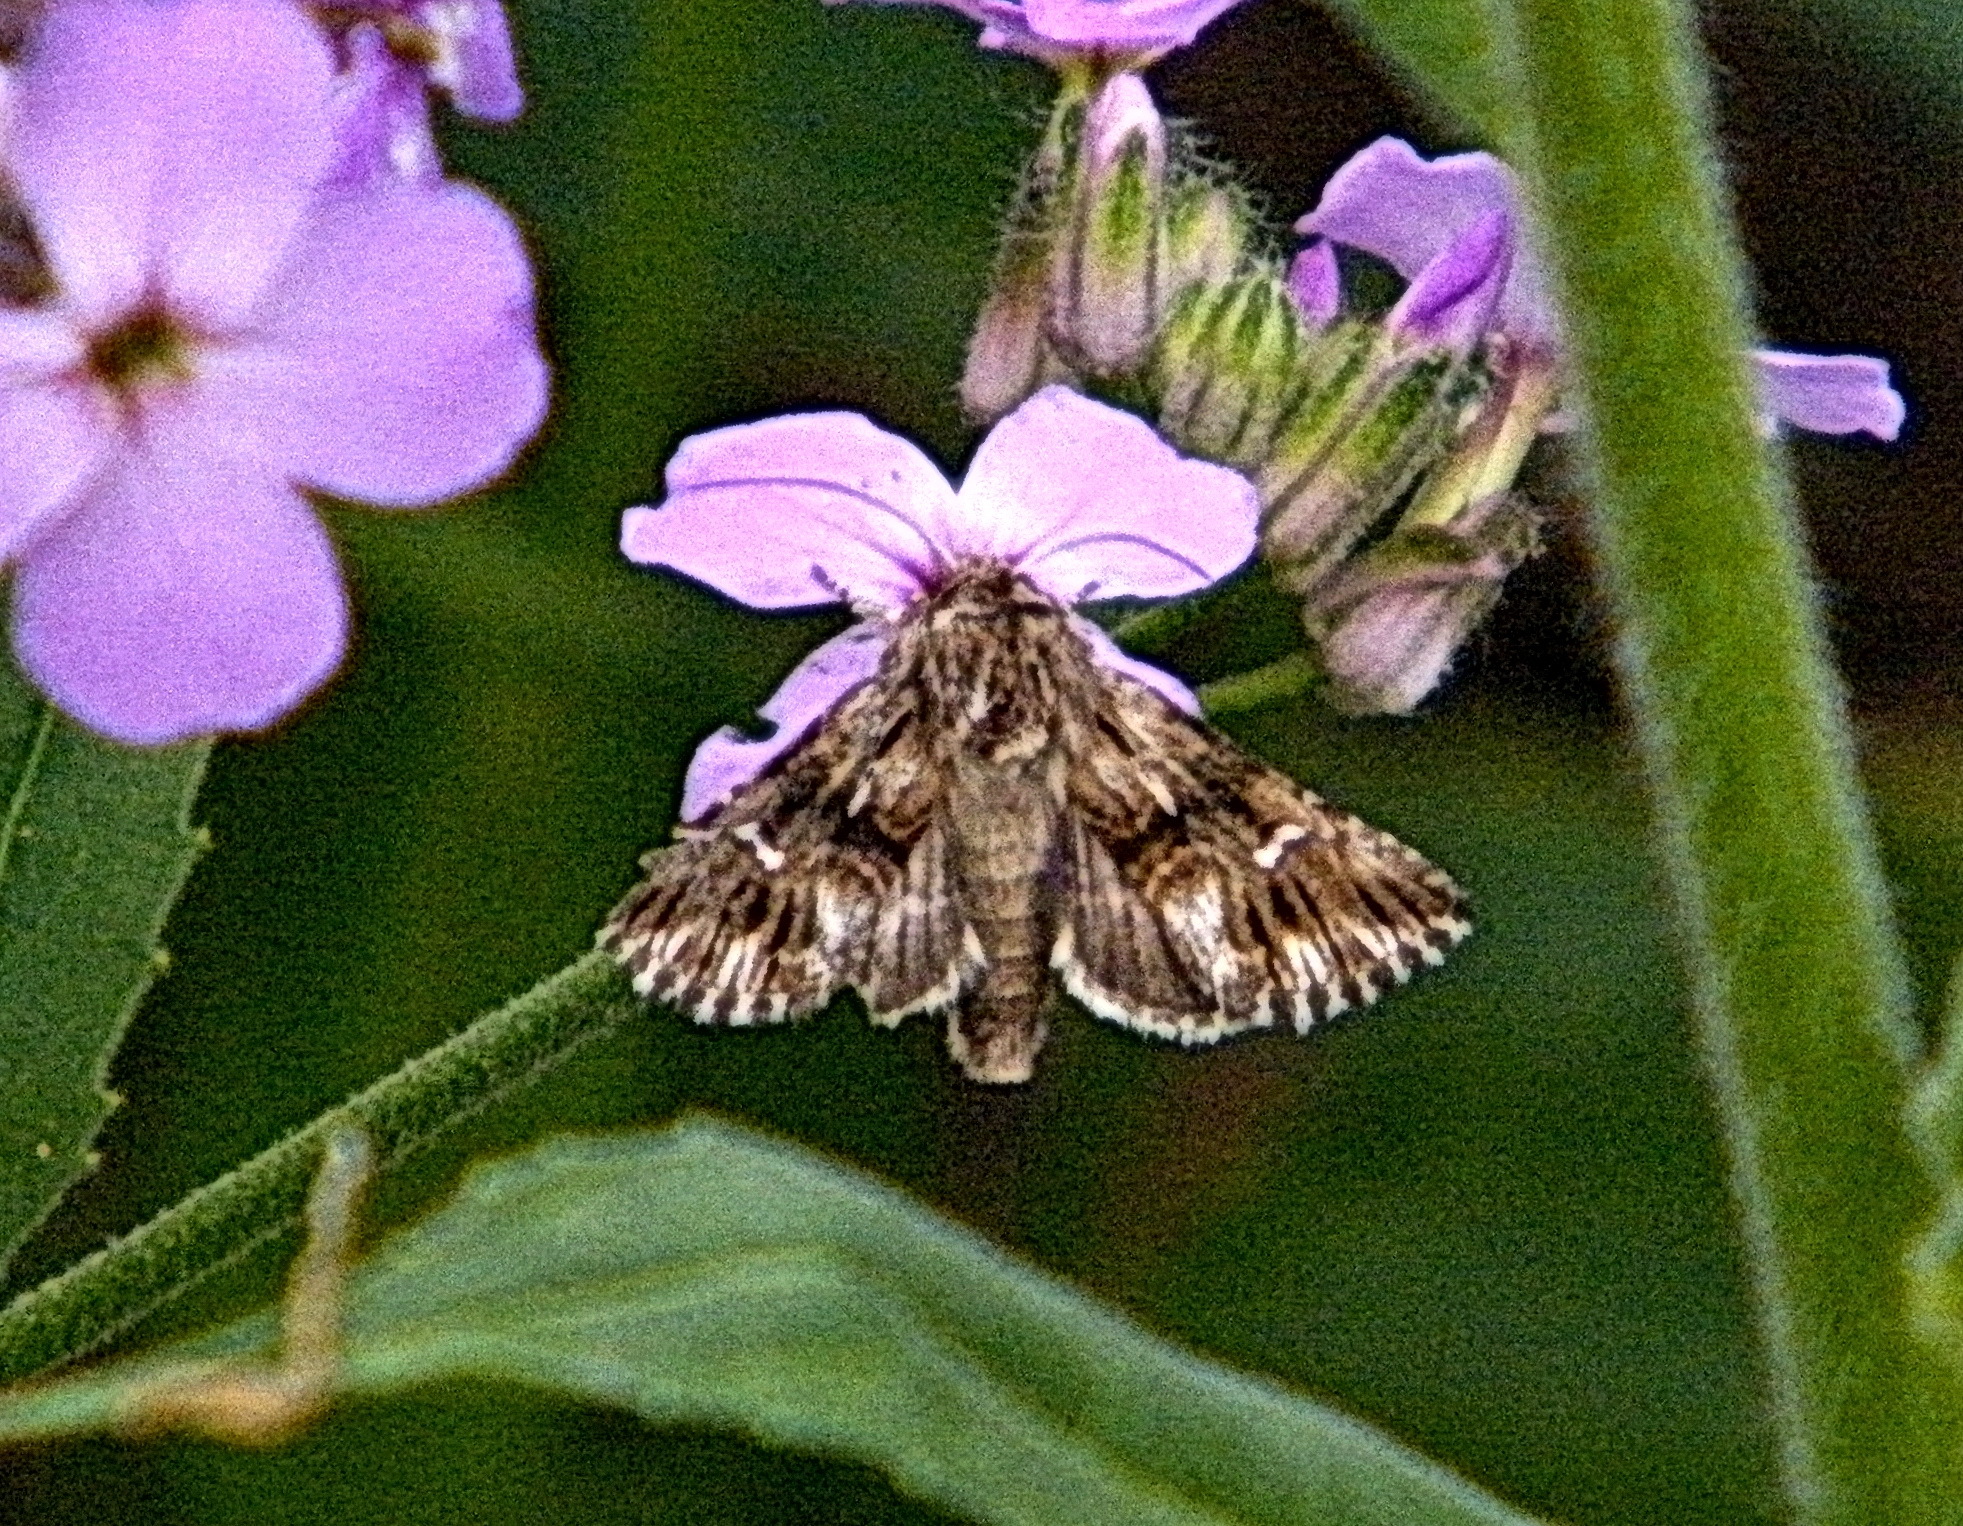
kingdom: Animalia
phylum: Arthropoda
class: Insecta
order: Lepidoptera
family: Noctuidae
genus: Calophasia
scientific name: Calophasia lunula
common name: Toadflax brocade
